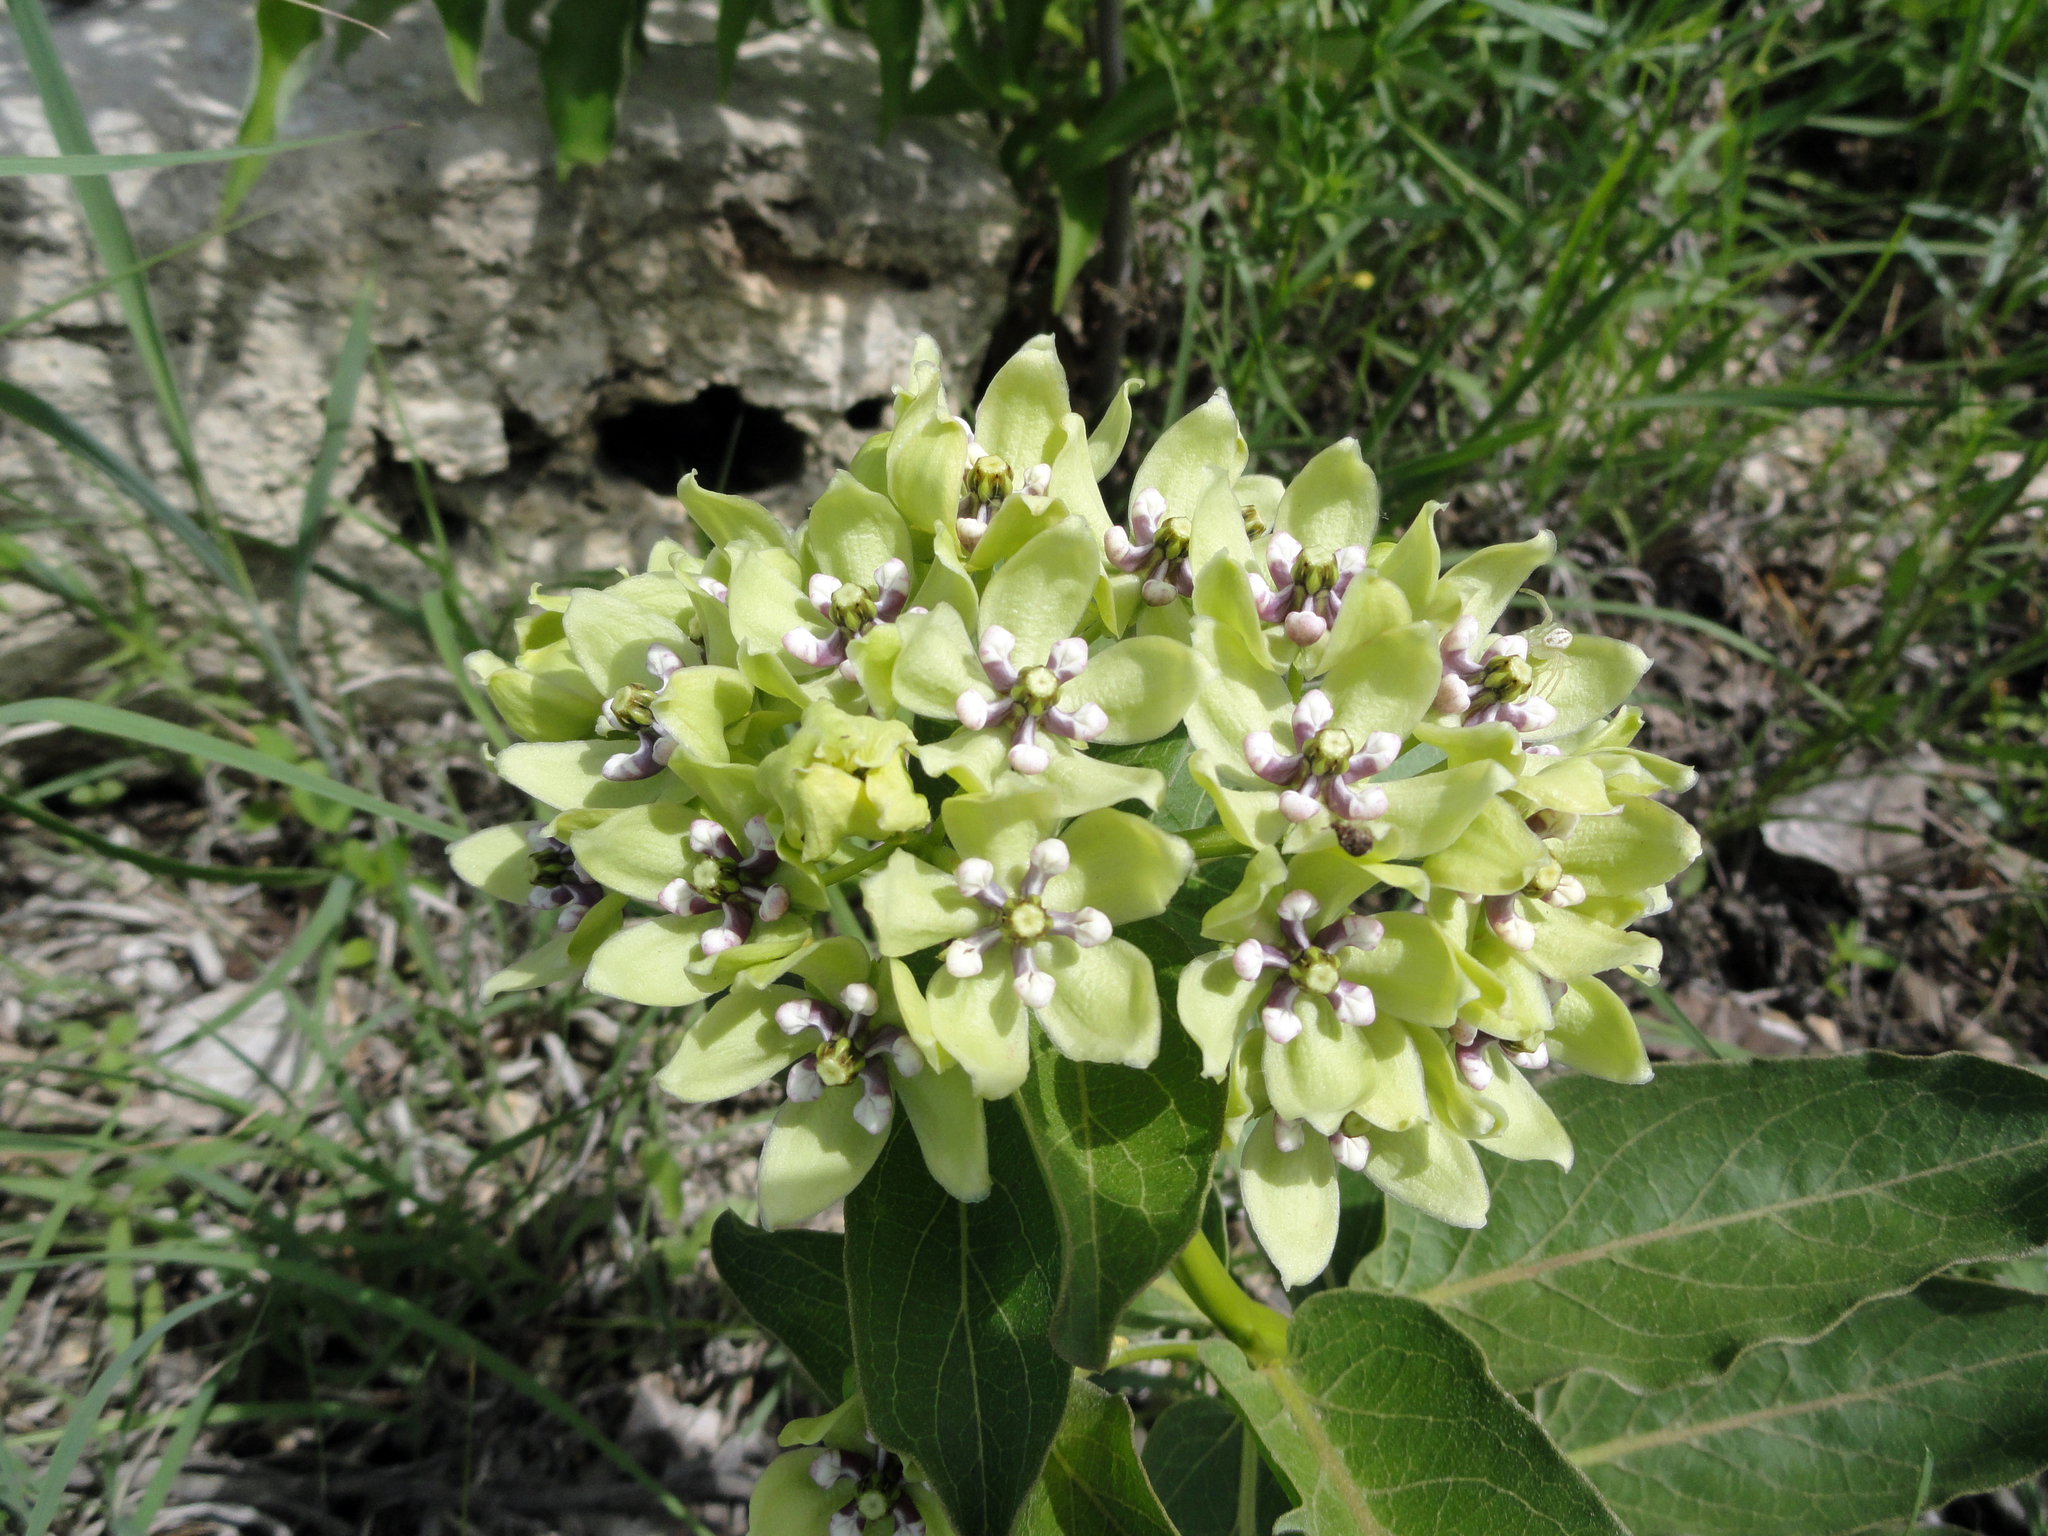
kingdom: Plantae
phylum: Tracheophyta
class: Magnoliopsida
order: Gentianales
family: Apocynaceae
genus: Asclepias
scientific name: Asclepias viridis
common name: Antelope-horns
